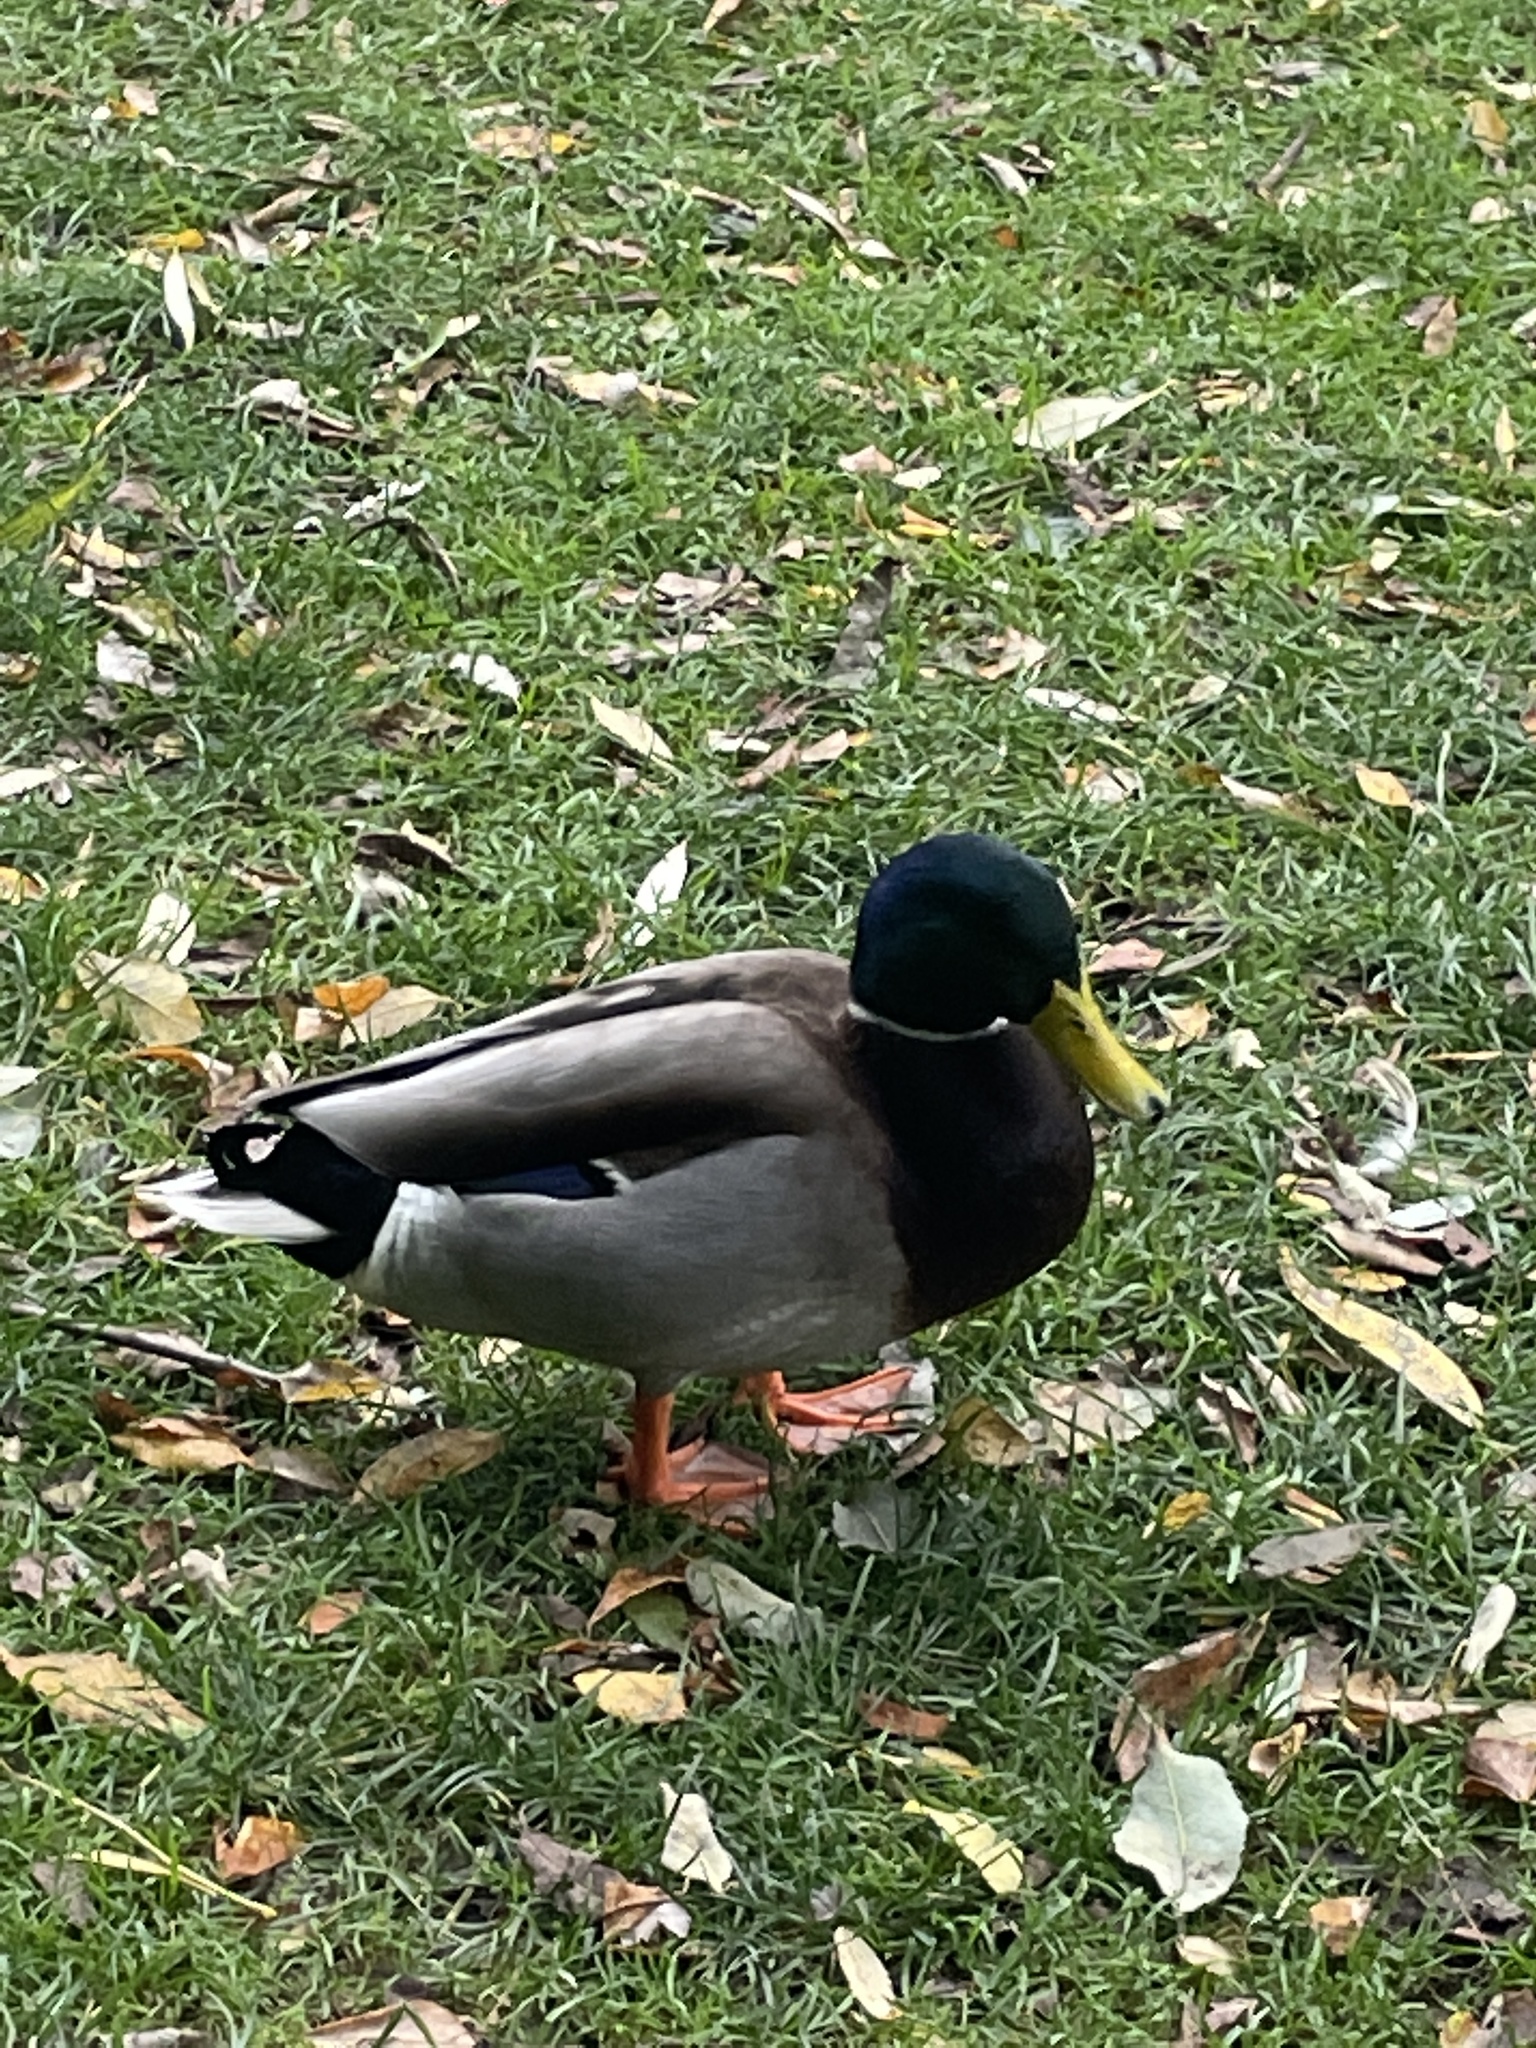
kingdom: Animalia
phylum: Chordata
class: Aves
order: Anseriformes
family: Anatidae
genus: Anas
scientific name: Anas platyrhynchos
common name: Mallard
